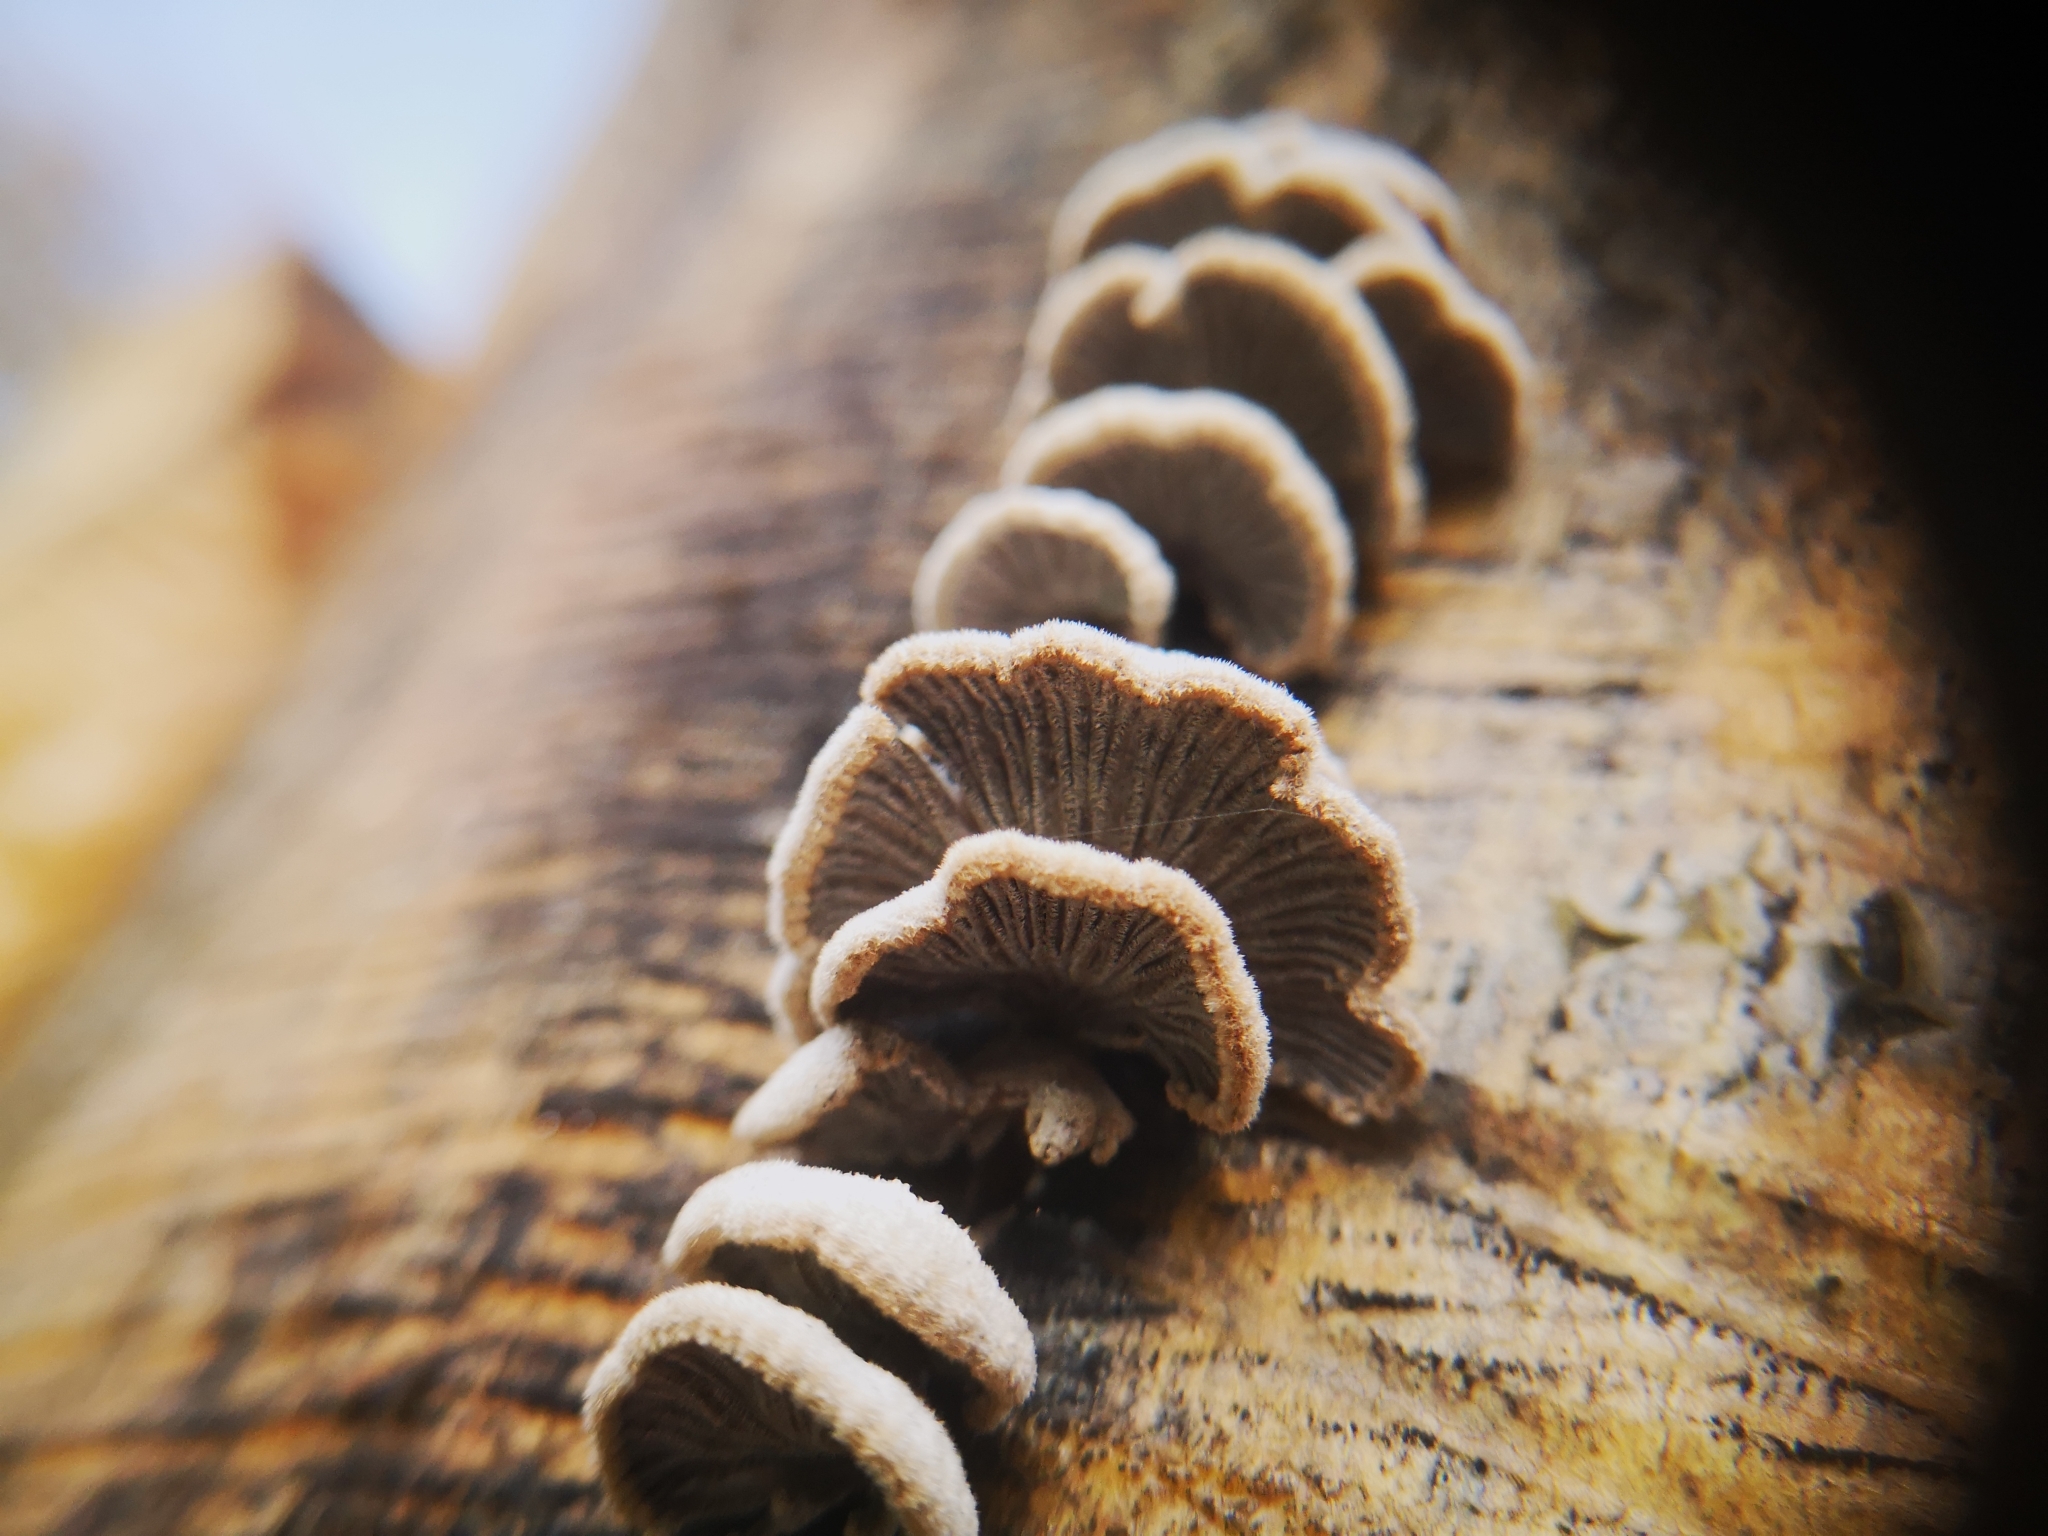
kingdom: Fungi
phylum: Basidiomycota
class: Agaricomycetes
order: Agaricales
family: Schizophyllaceae
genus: Schizophyllum
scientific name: Schizophyllum commune
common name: Common porecrust
